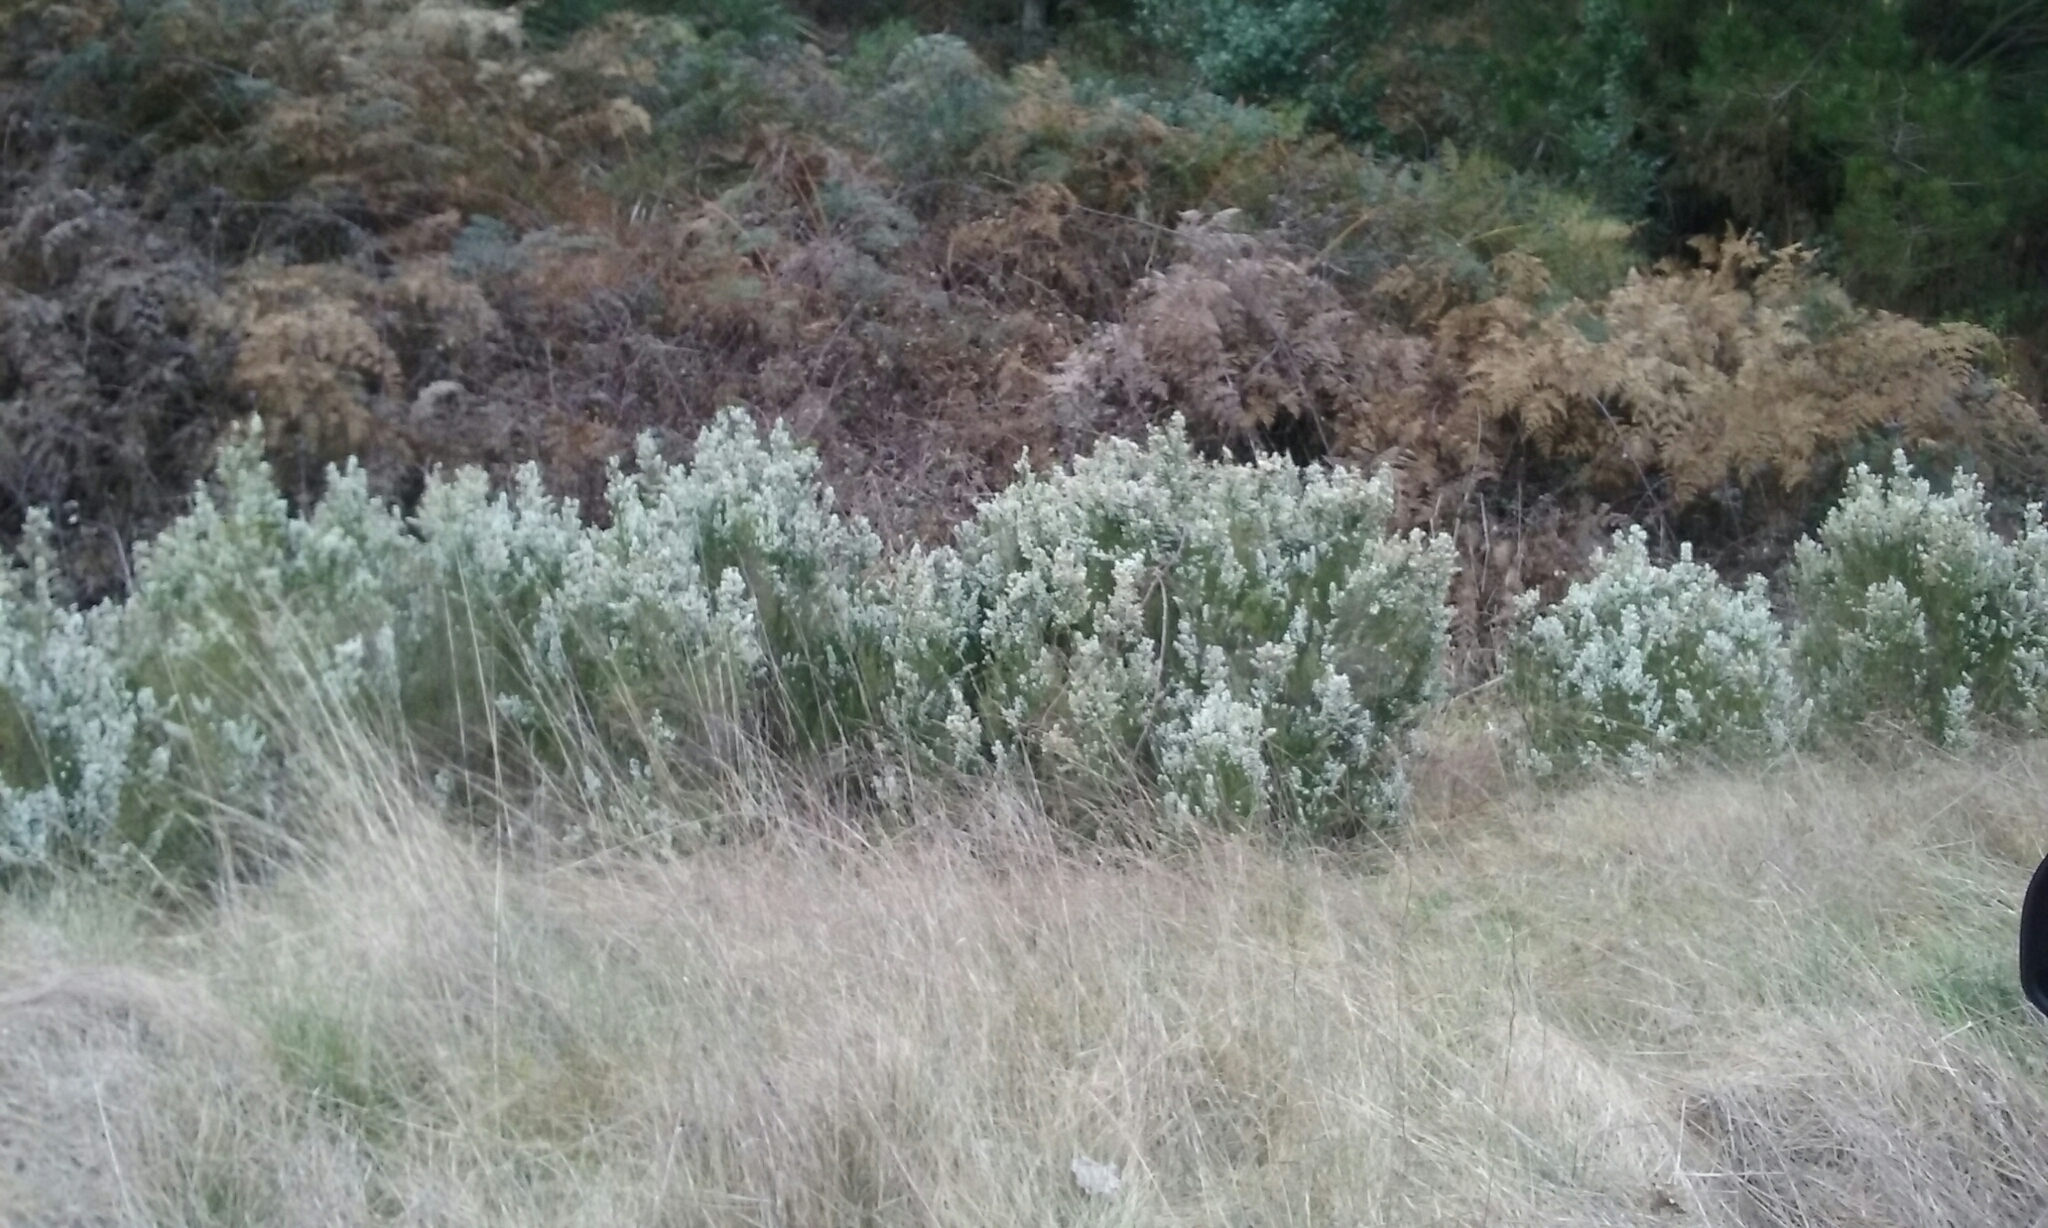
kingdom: Plantae
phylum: Tracheophyta
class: Magnoliopsida
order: Ericales
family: Ericaceae
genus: Erica
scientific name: Erica lusitanica
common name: Spanish heath
